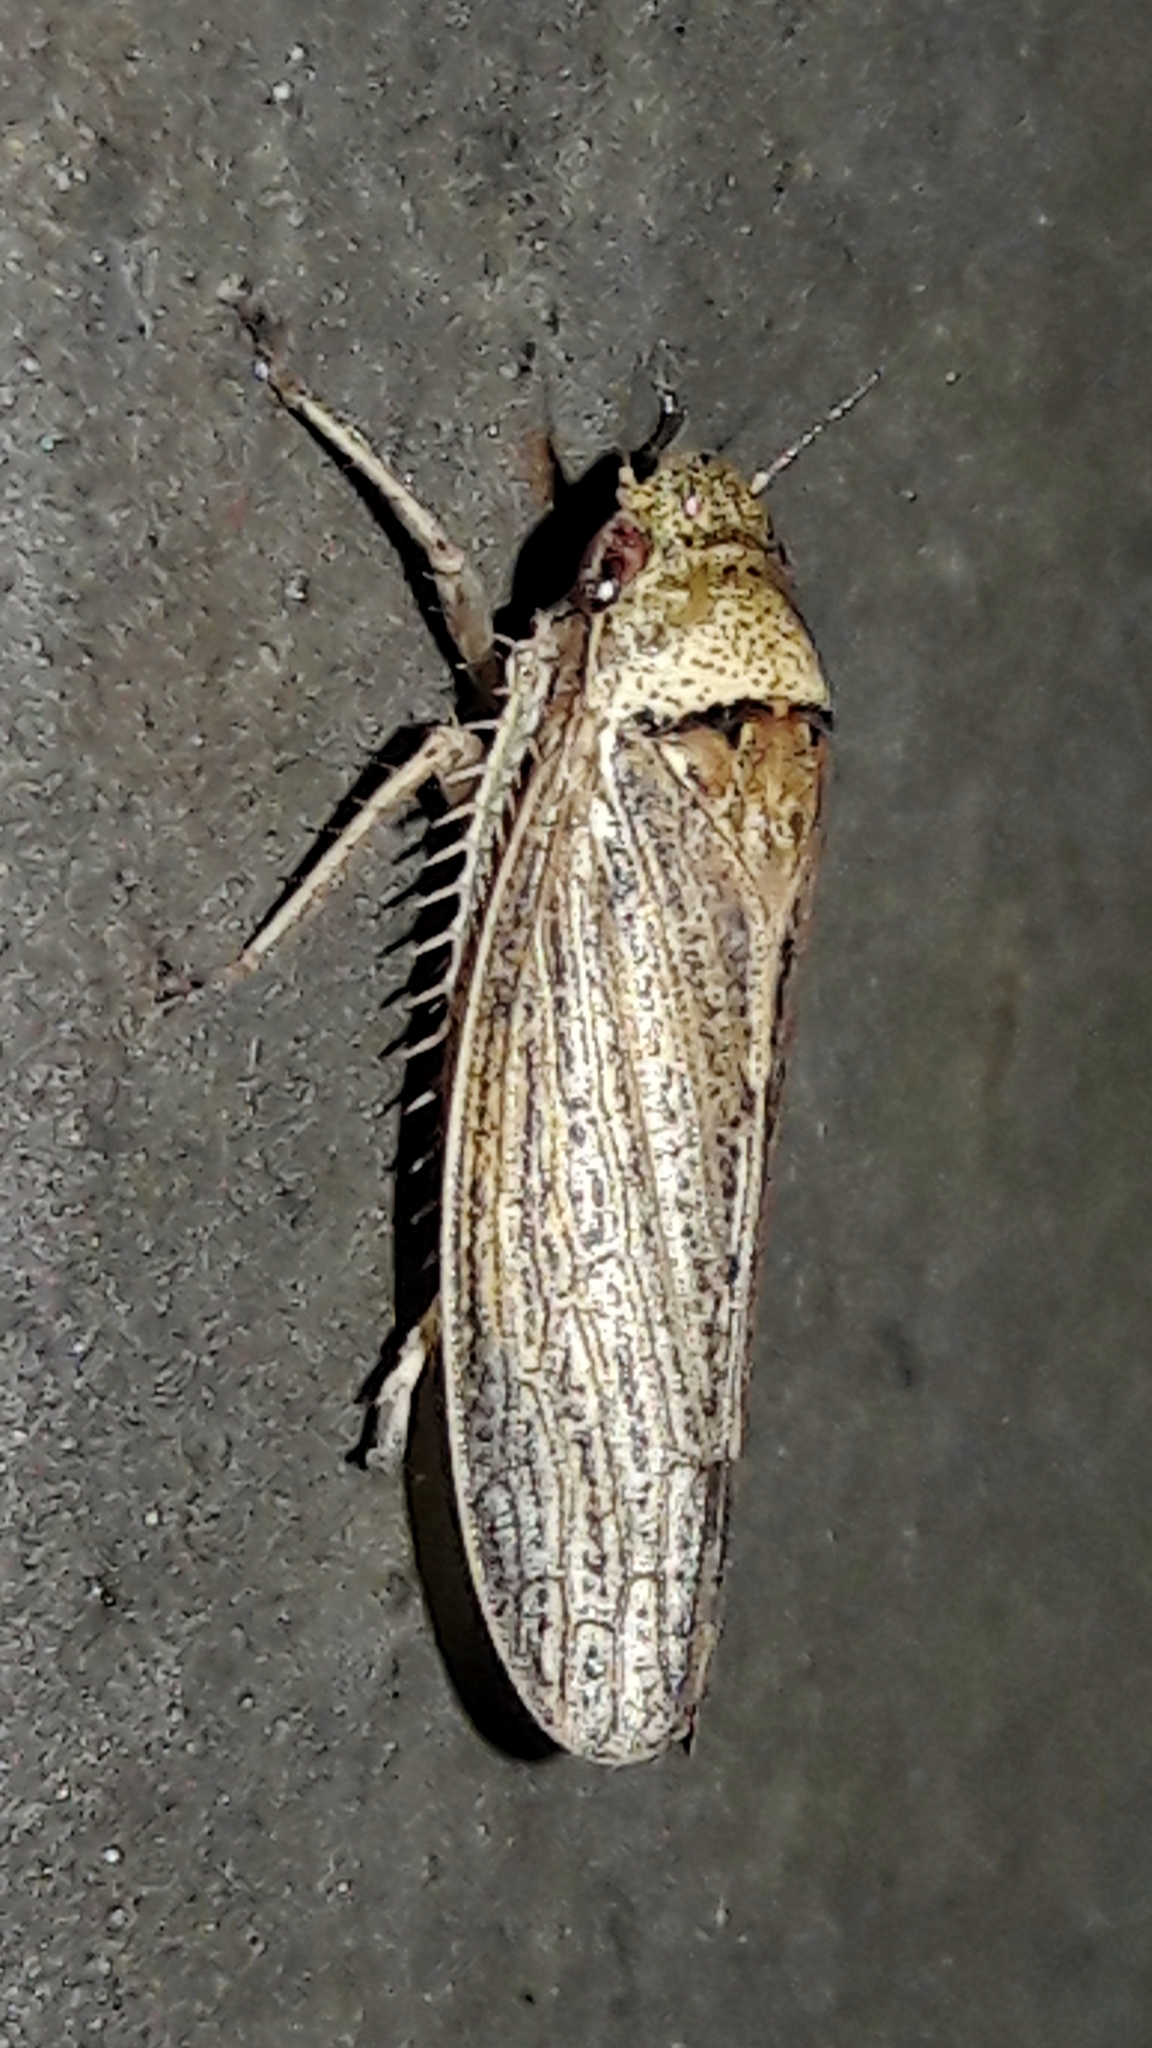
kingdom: Animalia
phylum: Arthropoda
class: Insecta
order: Hemiptera
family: Cicadellidae
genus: Sordana
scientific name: Sordana sordida
